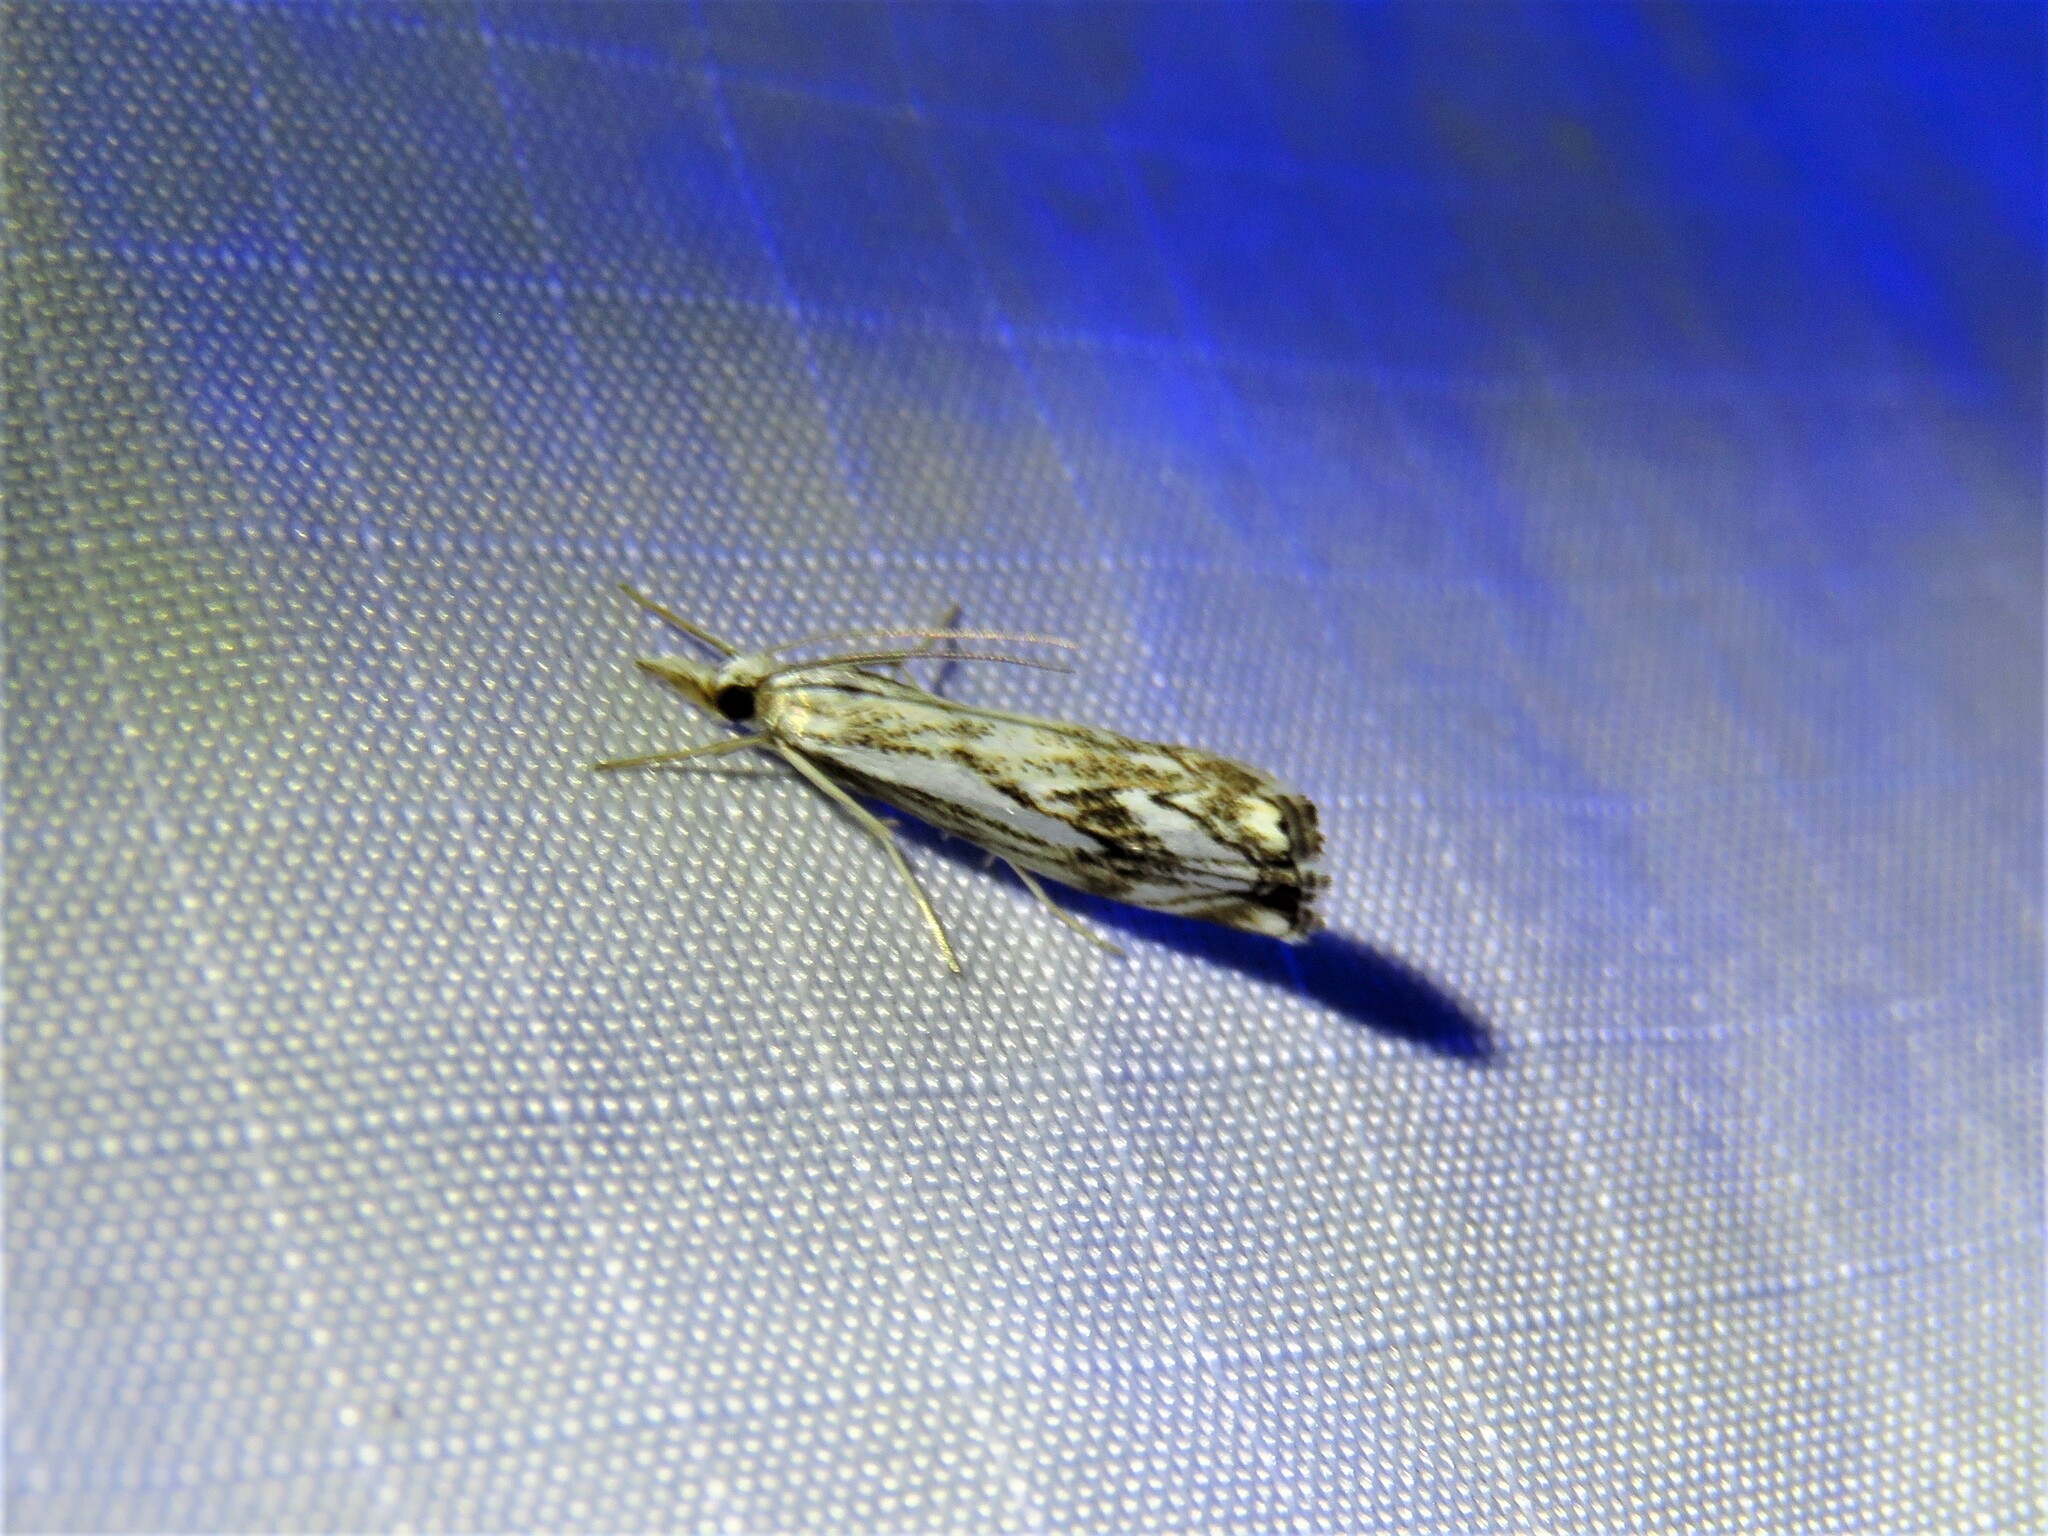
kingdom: Animalia
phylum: Arthropoda
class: Insecta
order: Lepidoptera
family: Crambidae
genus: Catoptria
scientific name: Catoptria falsella
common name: Chequered grass-veneer
